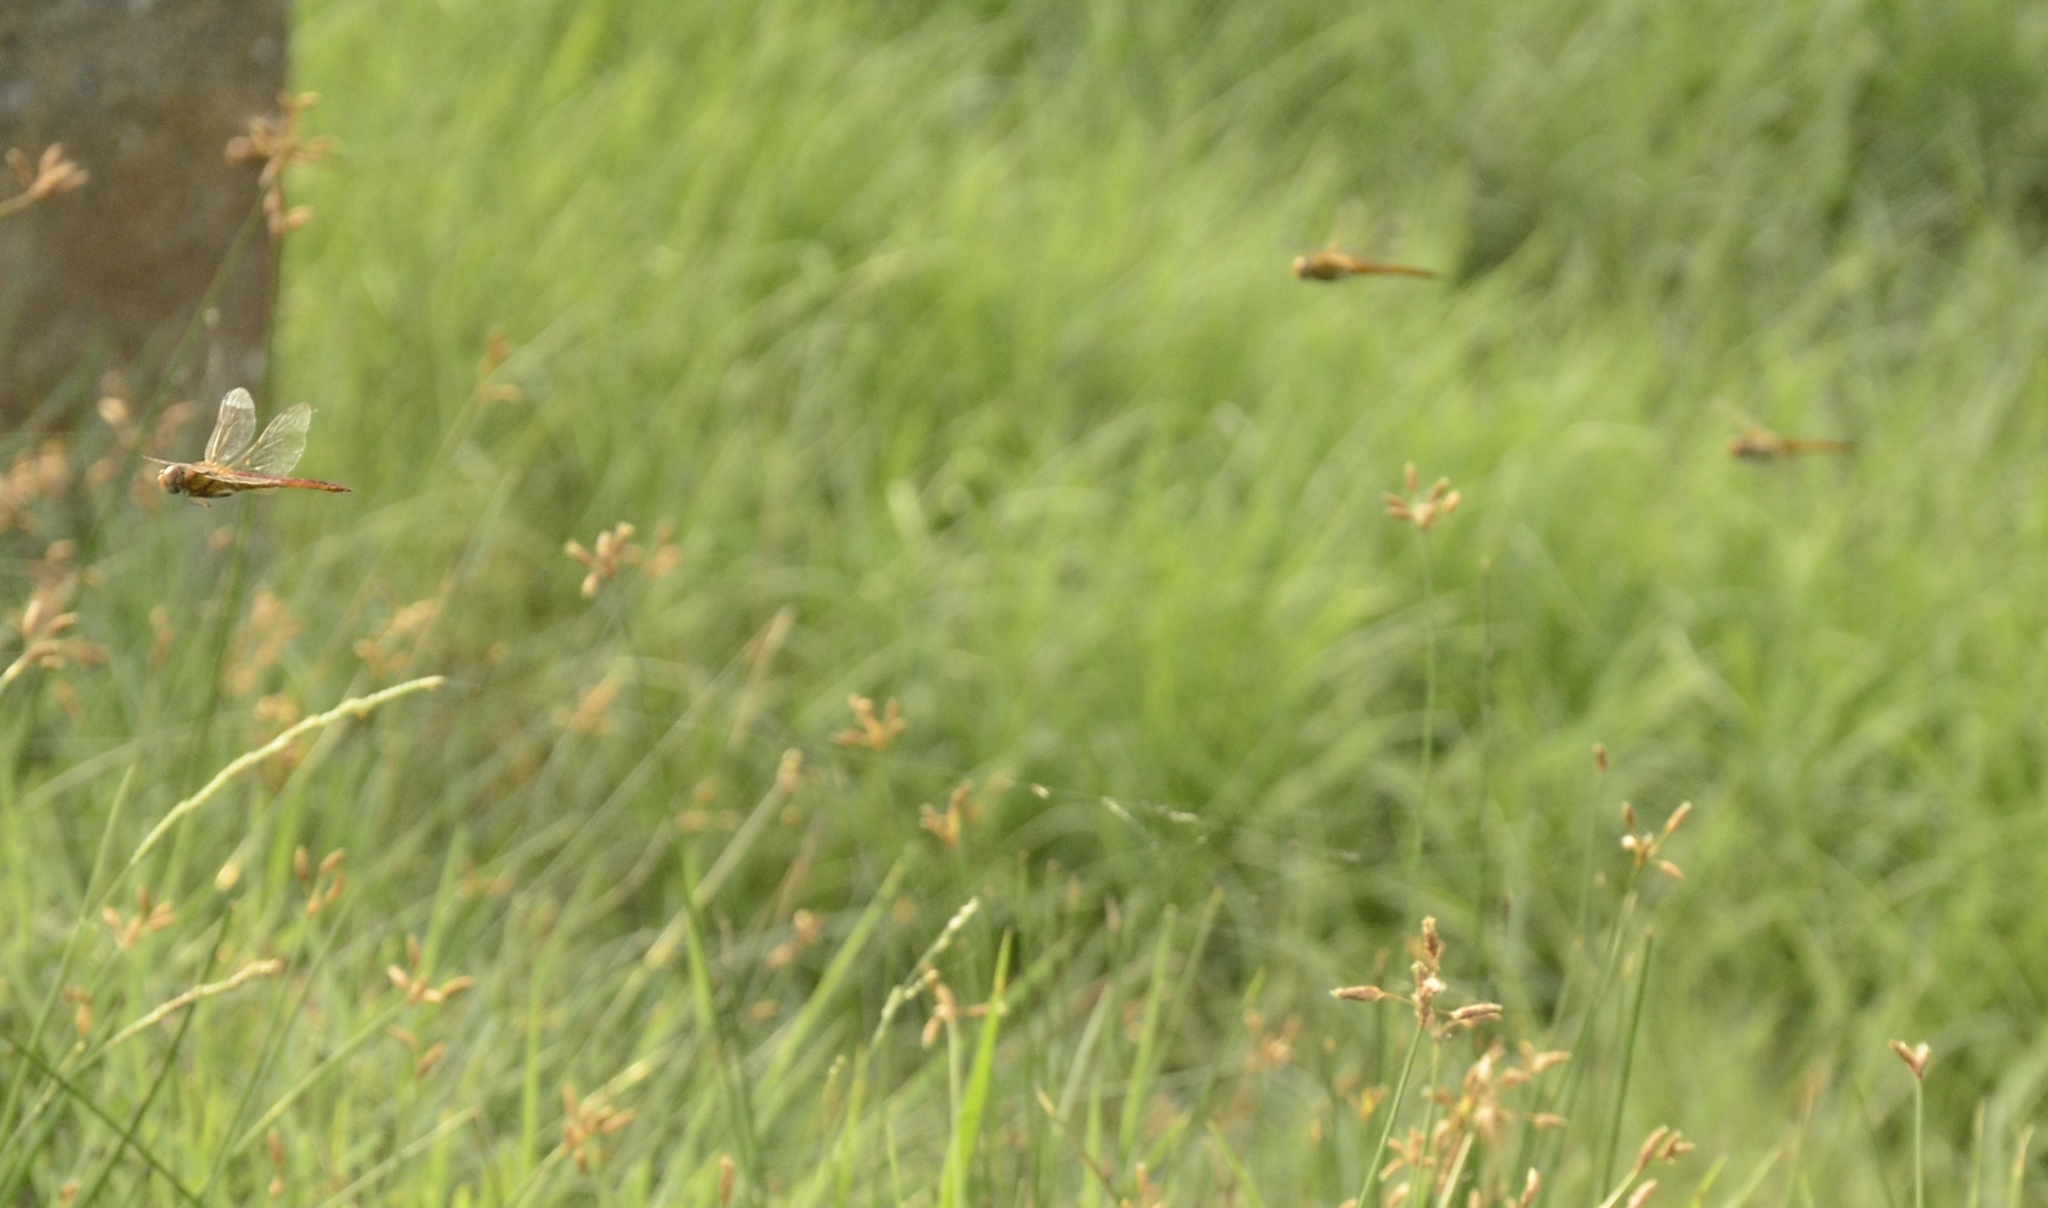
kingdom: Animalia
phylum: Arthropoda
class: Insecta
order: Odonata
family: Libellulidae
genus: Pantala
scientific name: Pantala flavescens
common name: Wandering glider
